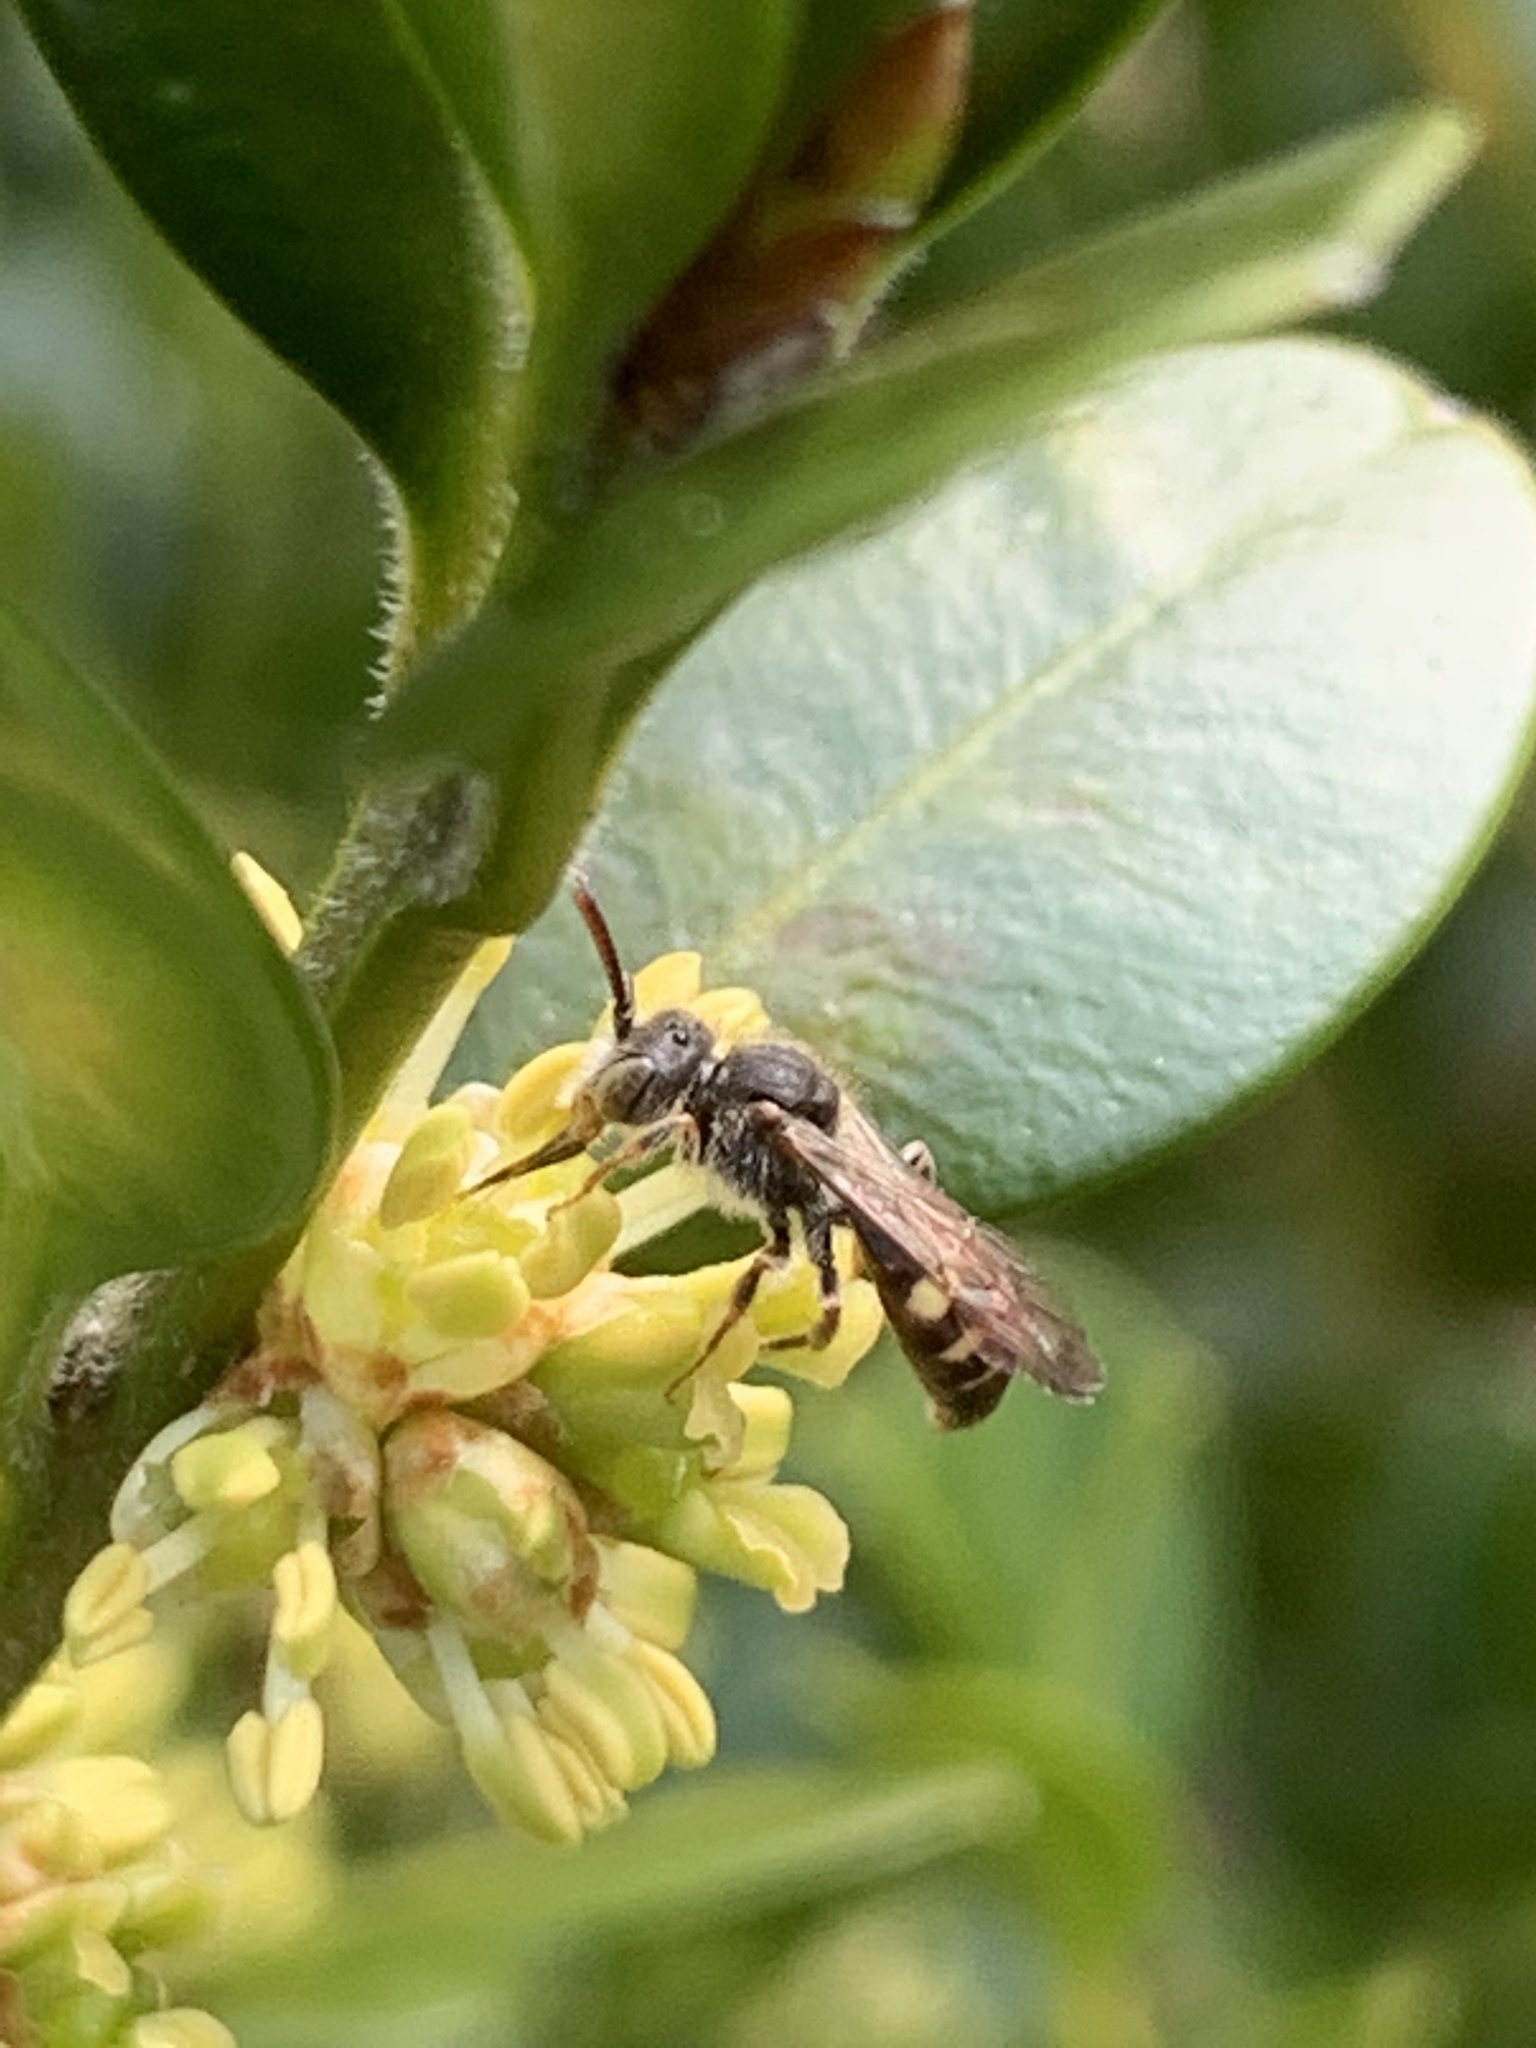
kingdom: Animalia
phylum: Arthropoda
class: Insecta
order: Hymenoptera
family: Apidae
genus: Nomada
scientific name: Nomada
